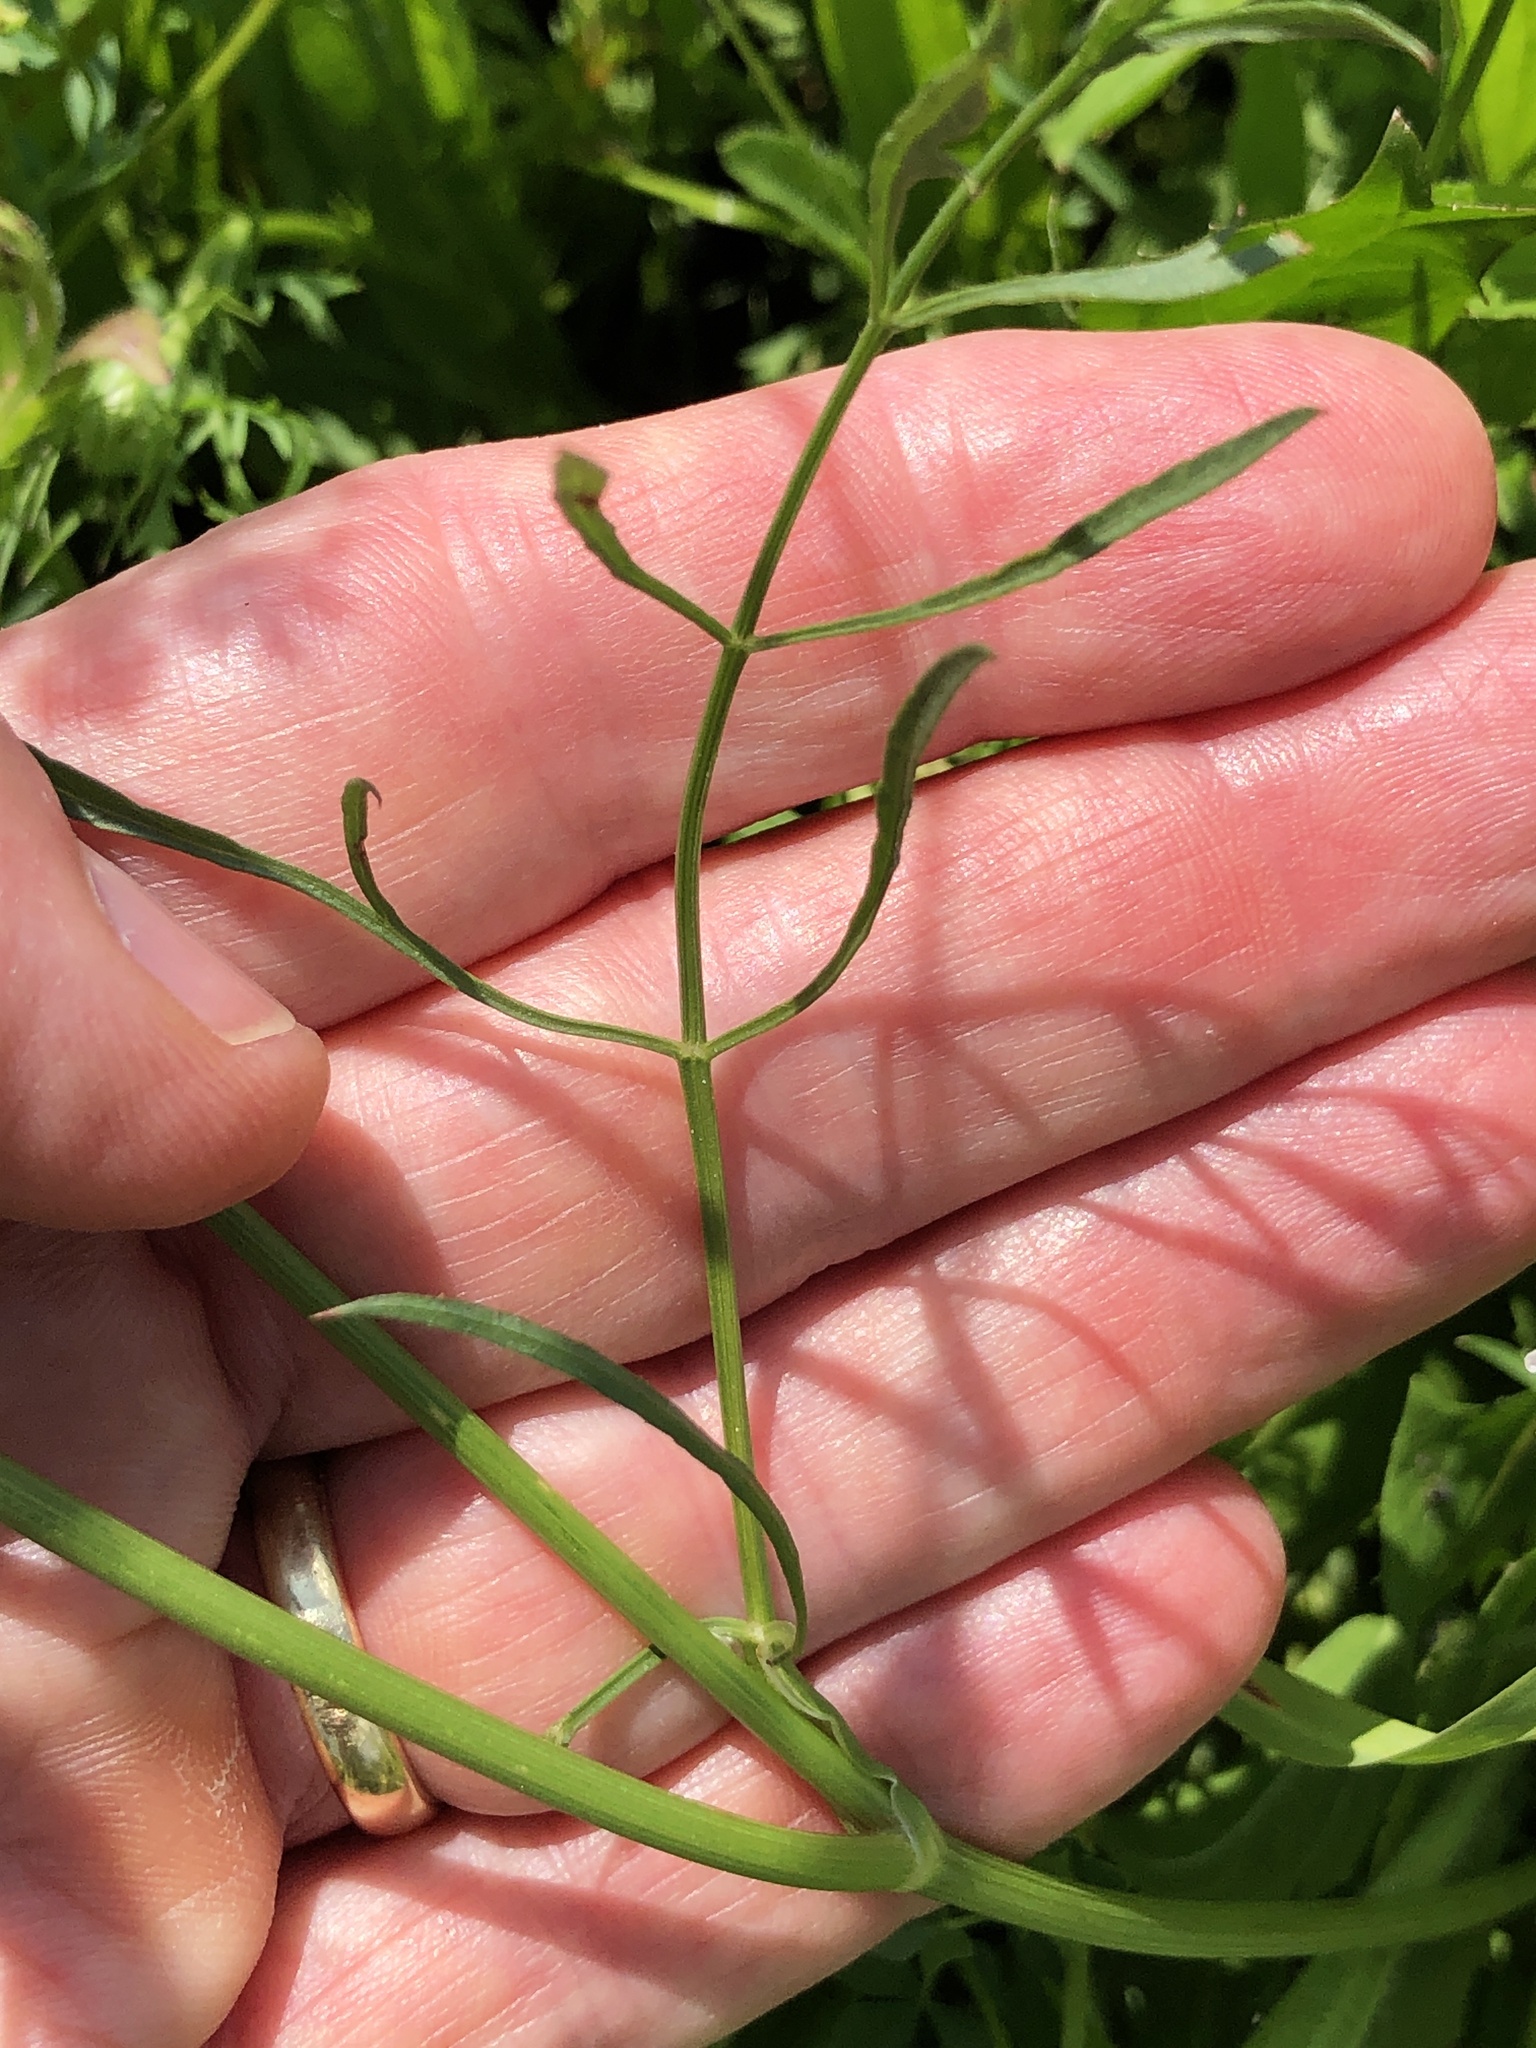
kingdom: Plantae
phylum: Tracheophyta
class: Magnoliopsida
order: Apiales
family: Apiaceae
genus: Daucus
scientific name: Daucus carota
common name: Wild carrot
